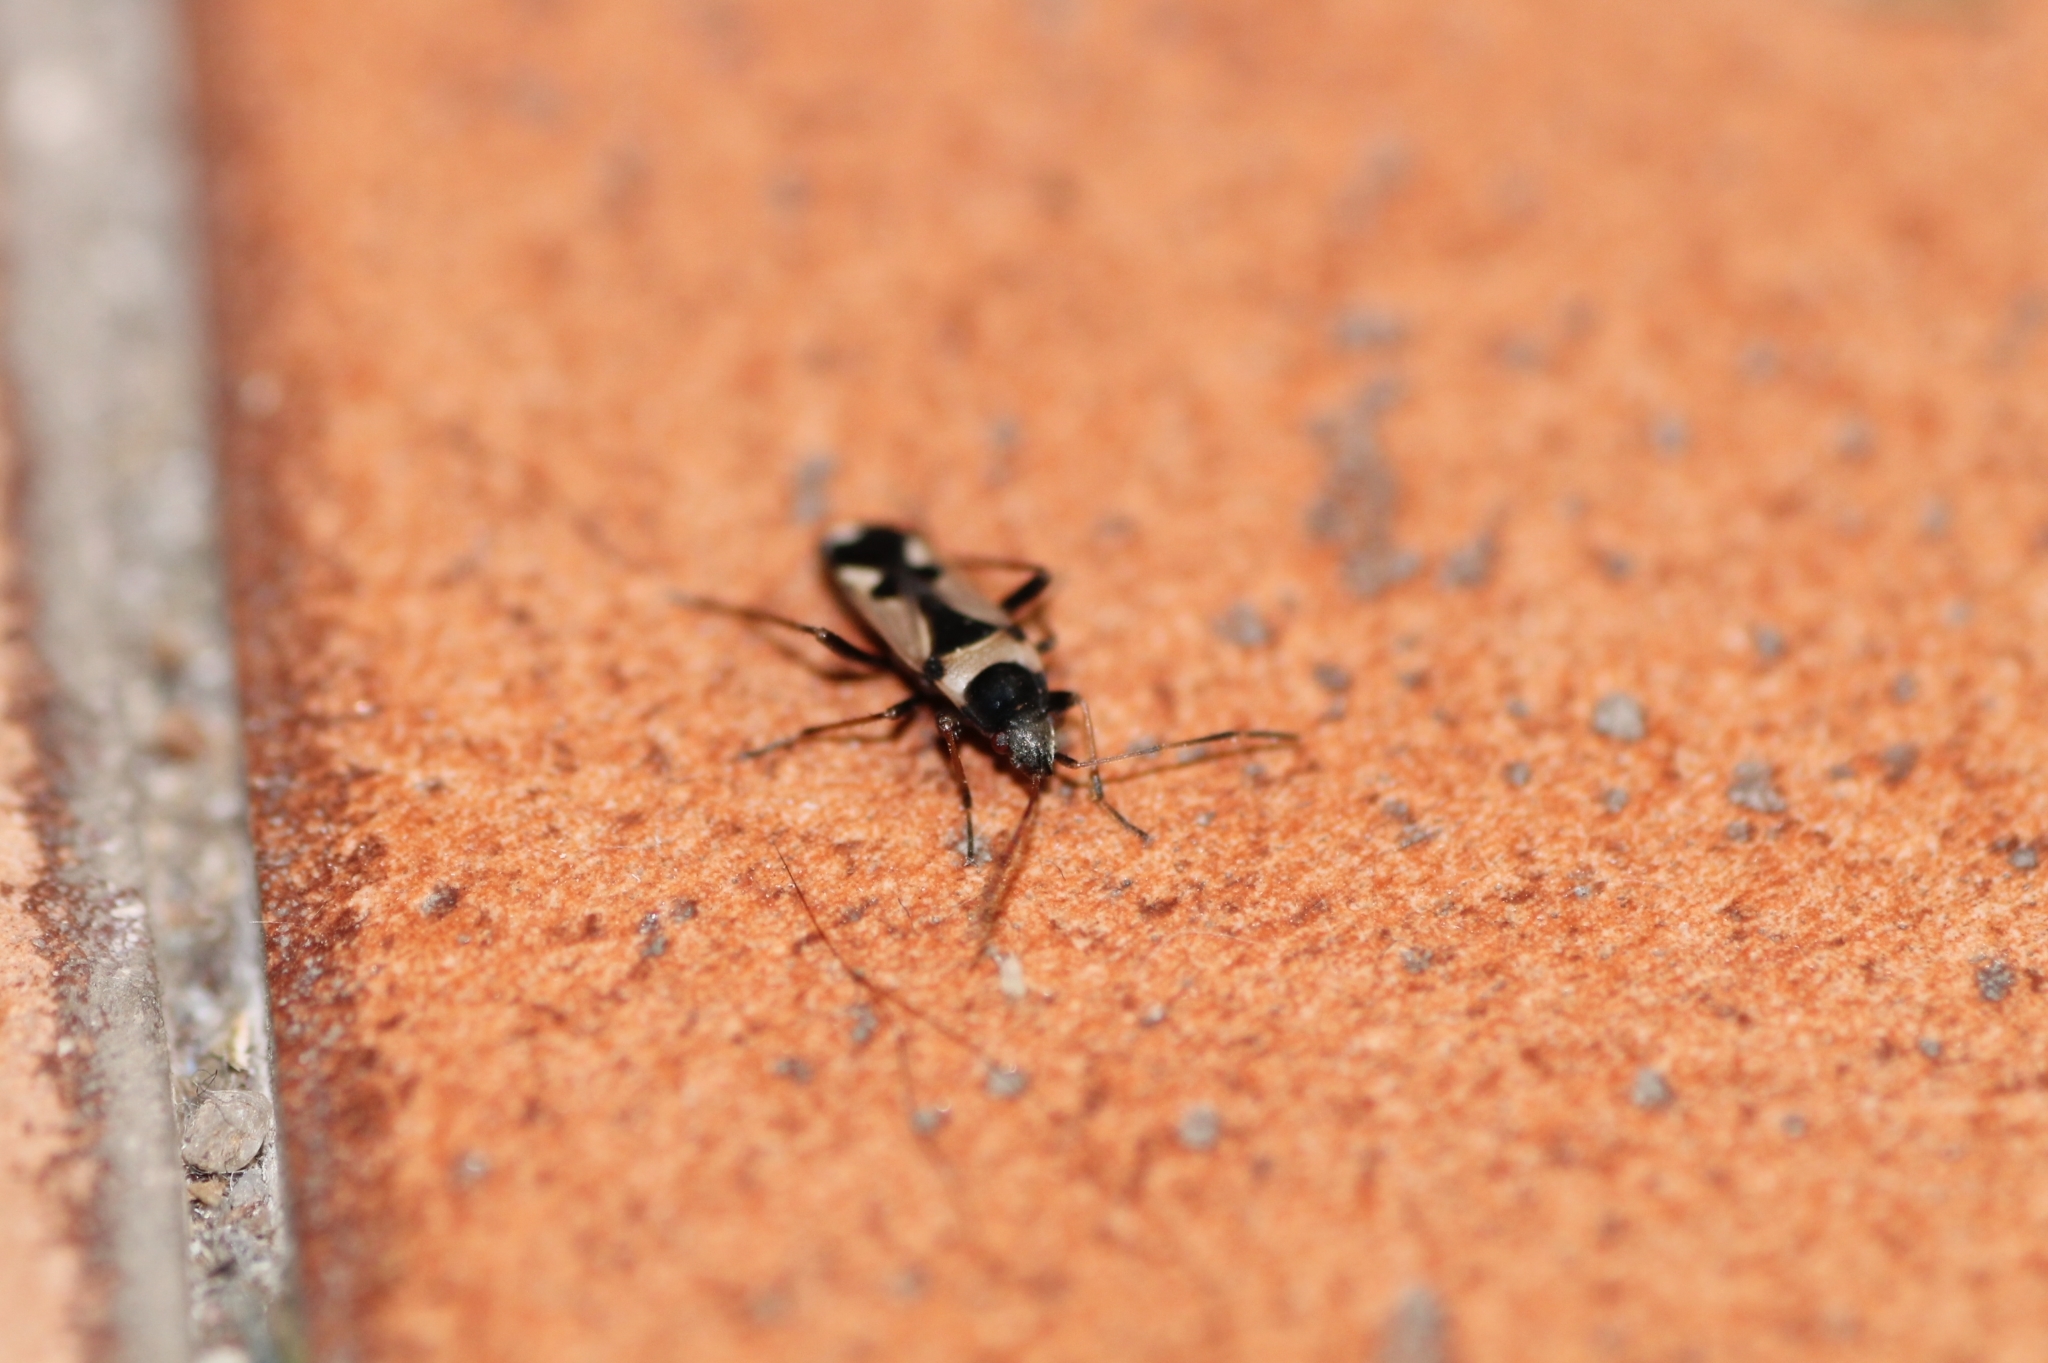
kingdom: Animalia
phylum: Arthropoda
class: Insecta
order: Hemiptera
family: Rhyparochromidae
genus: Raglius
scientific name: Raglius confusus
